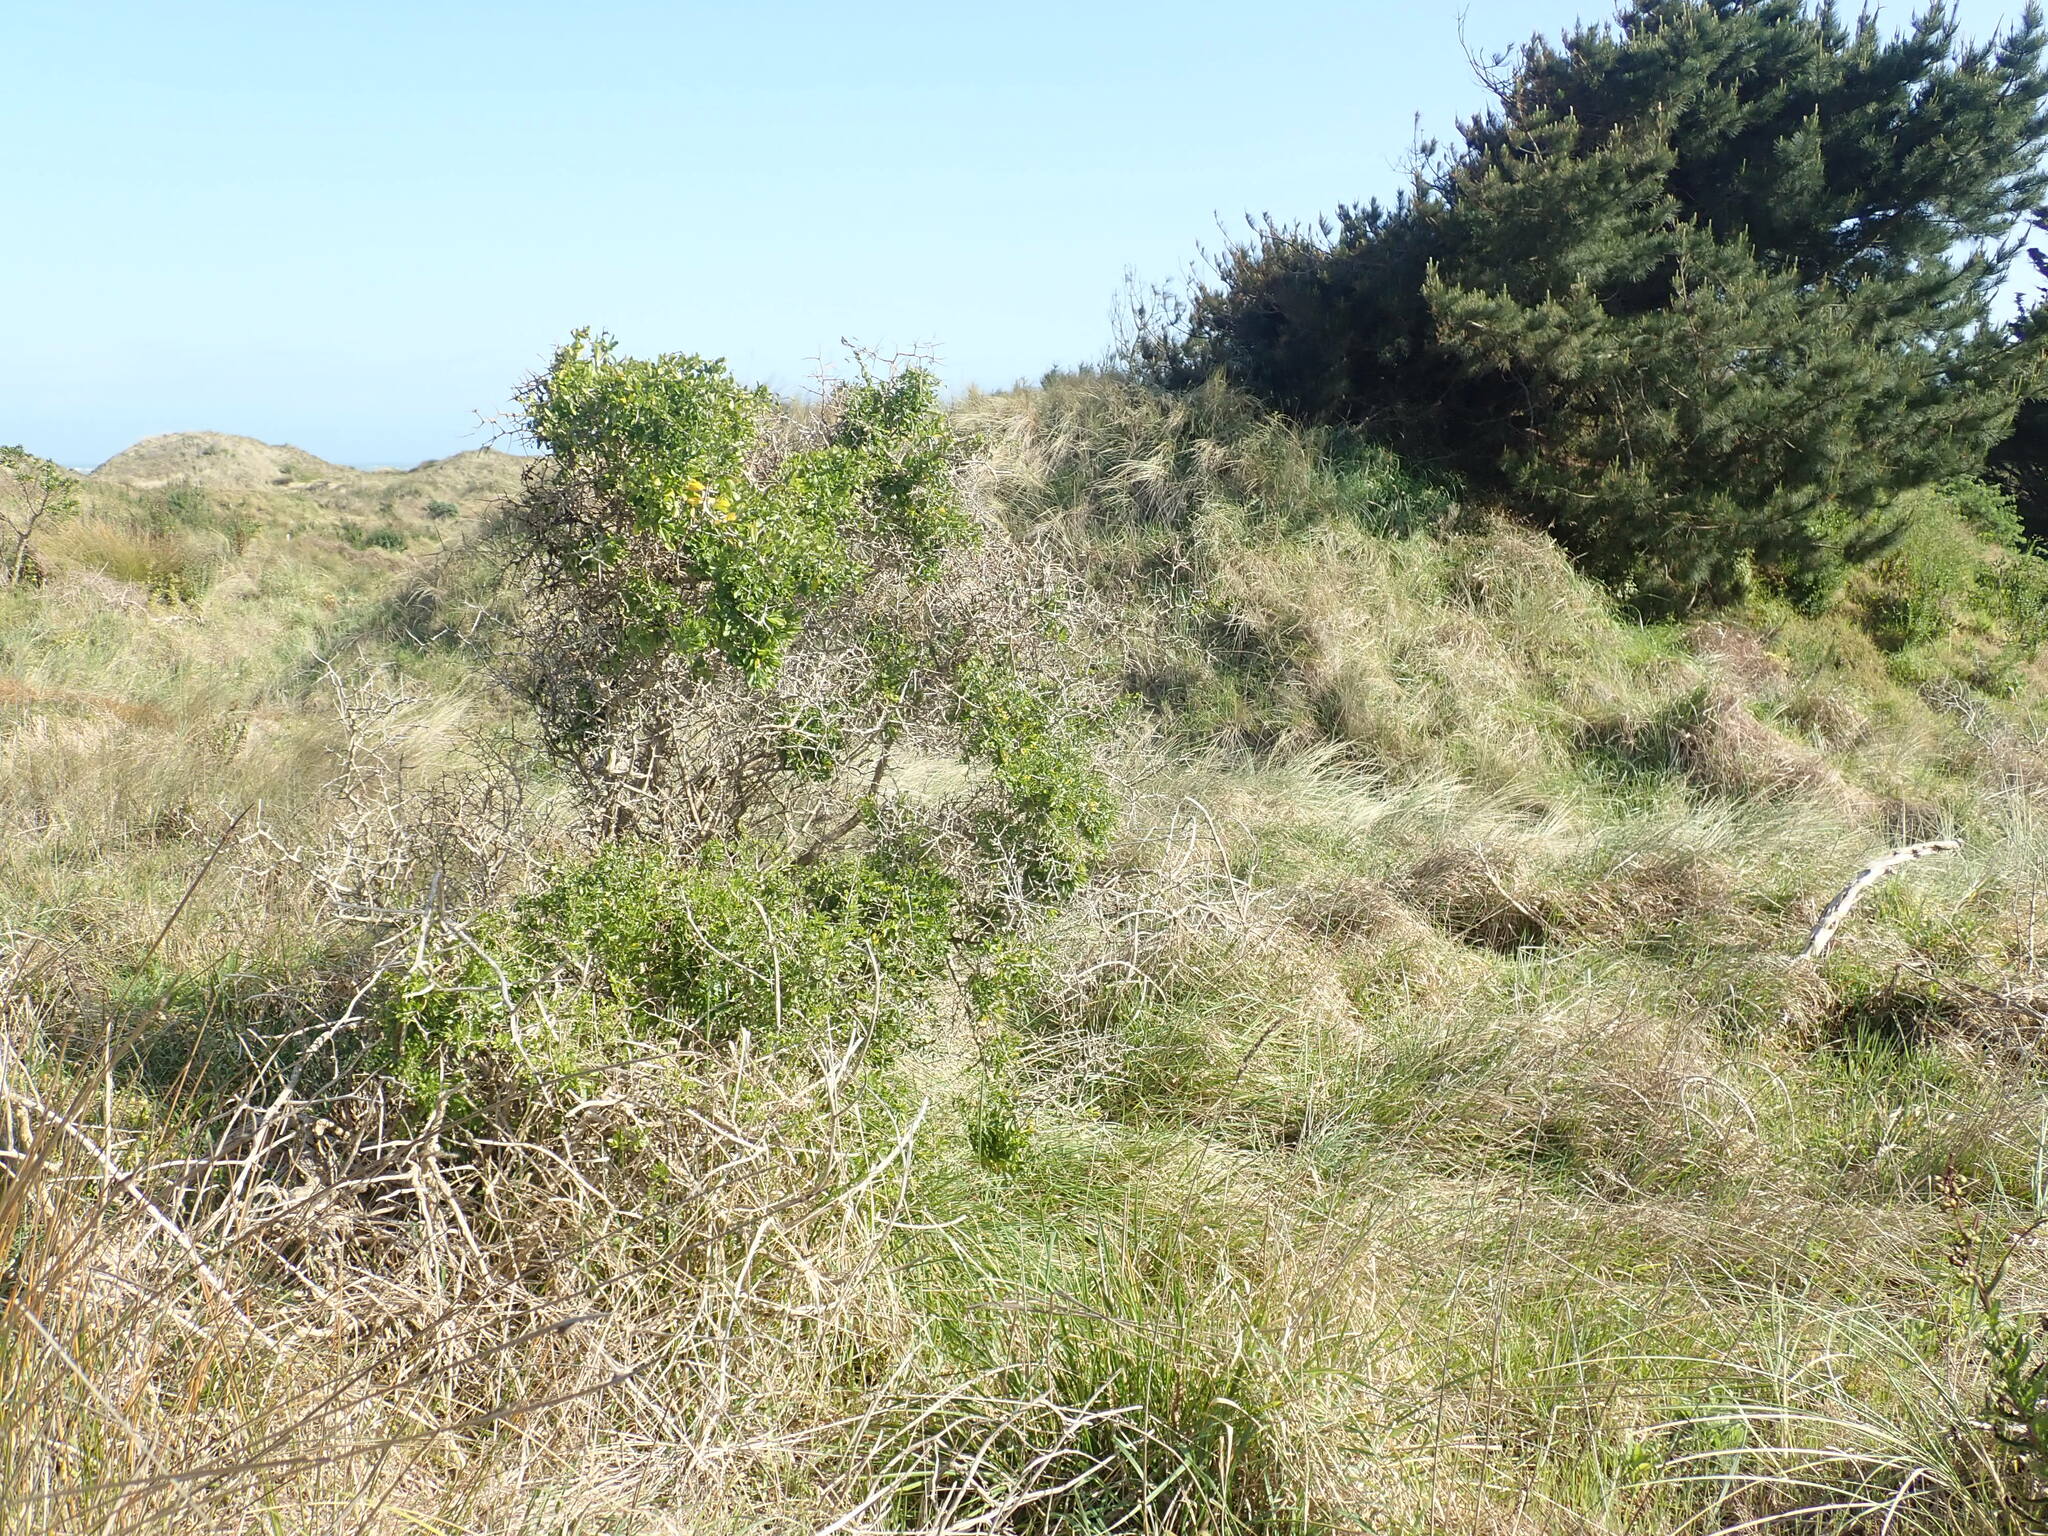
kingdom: Plantae
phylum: Tracheophyta
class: Magnoliopsida
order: Solanales
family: Solanaceae
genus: Lycium
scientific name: Lycium ferocissimum
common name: African boxthorn
